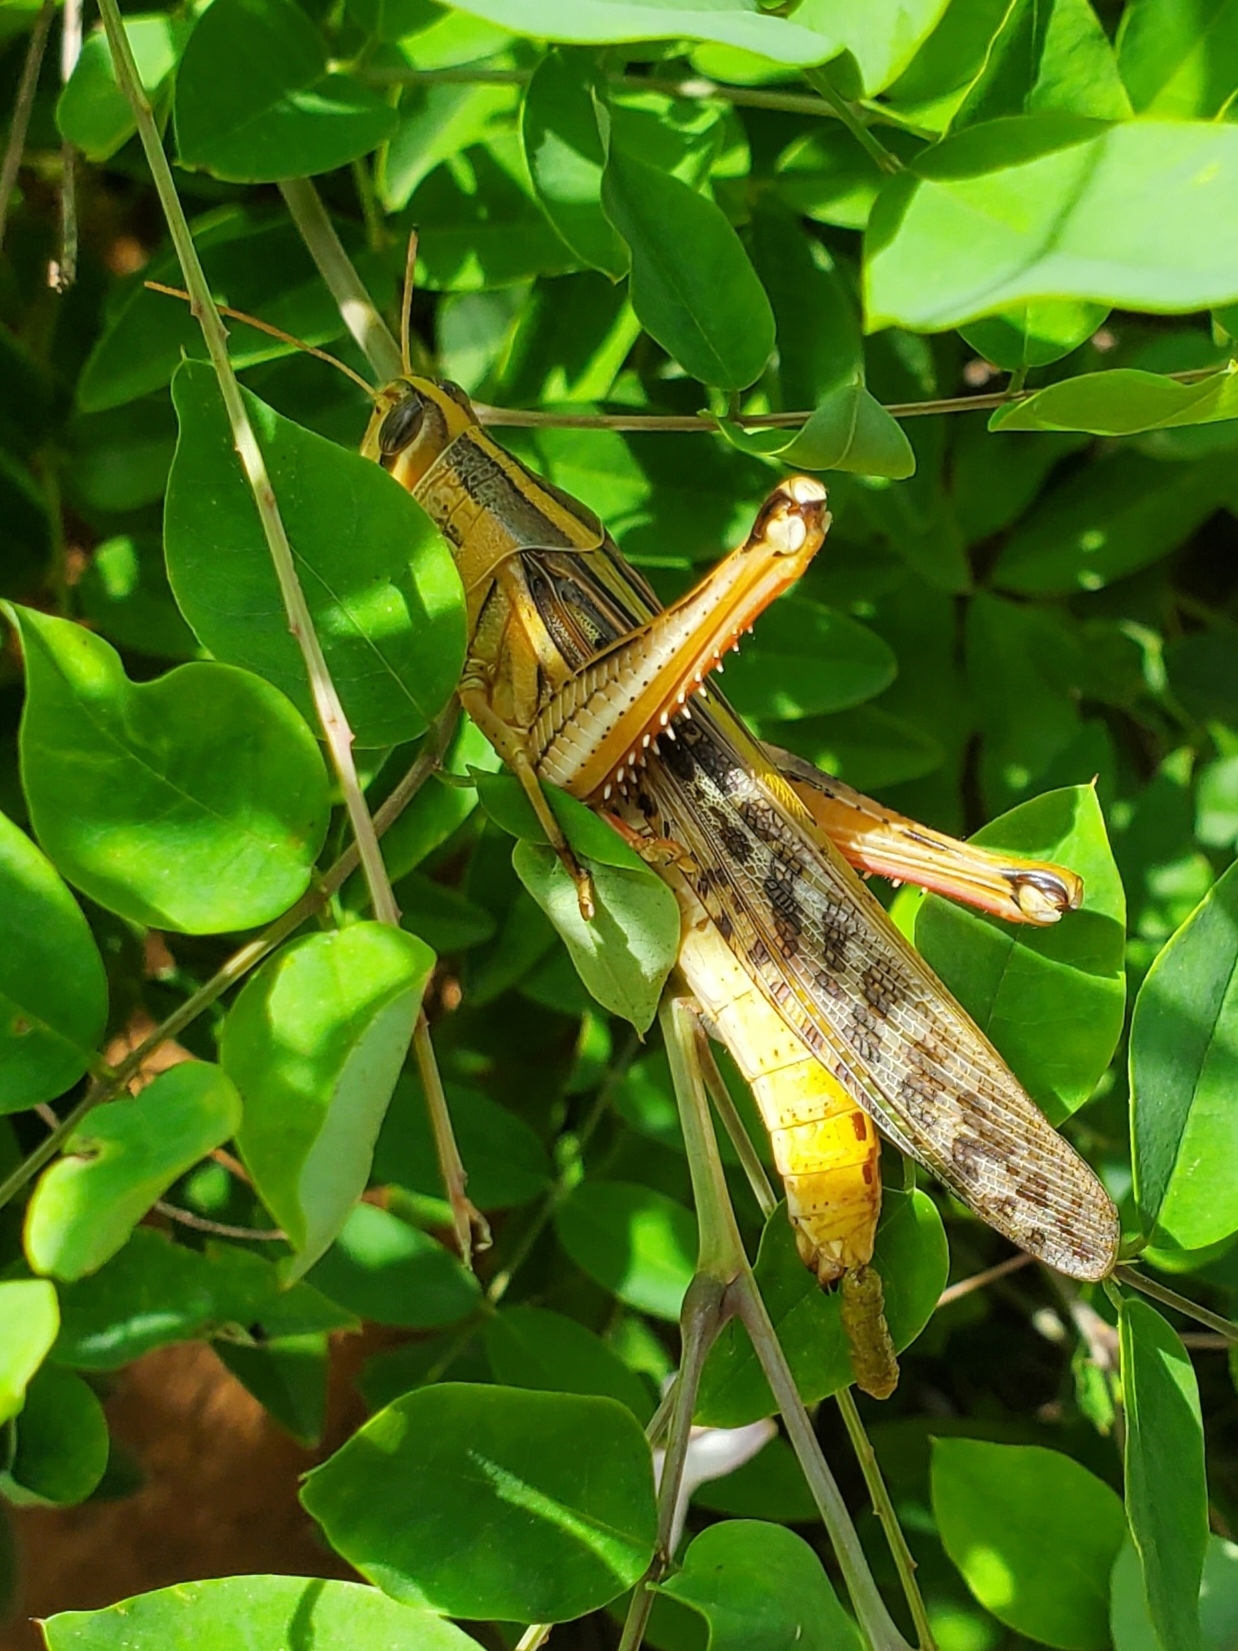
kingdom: Animalia
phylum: Arthropoda
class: Insecta
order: Orthoptera
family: Acrididae
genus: Schistocerca
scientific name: Schistocerca americana
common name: American bird locust
